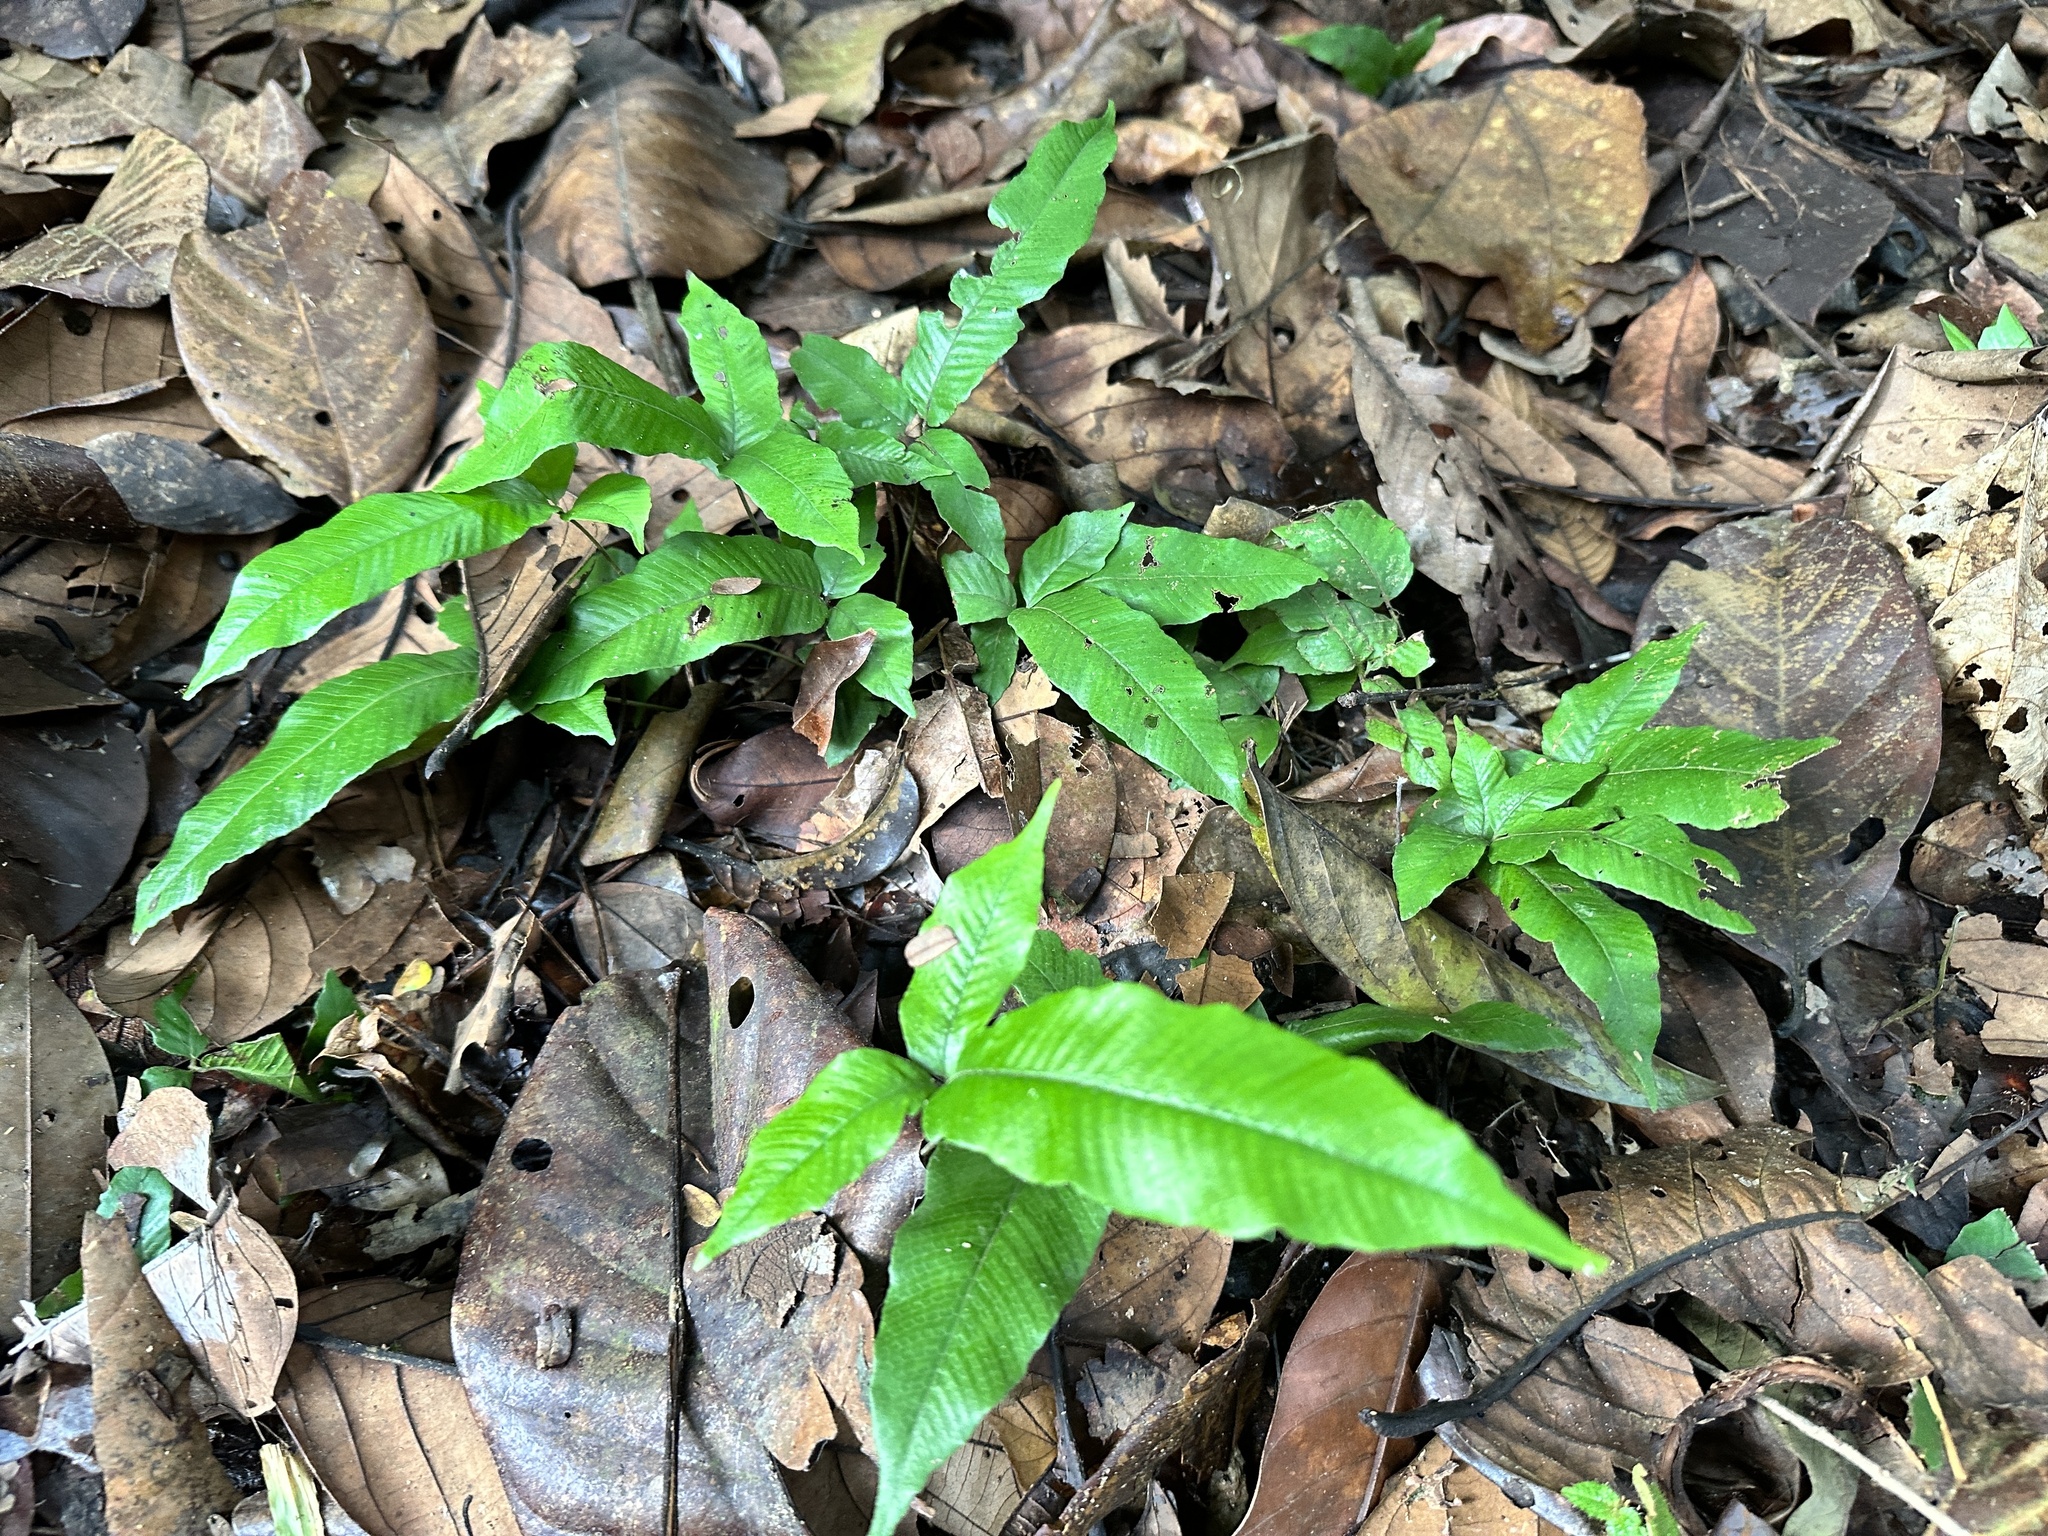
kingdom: Plantae
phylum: Tracheophyta
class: Polypodiopsida
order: Polypodiales
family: Thelypteridaceae
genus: Grypothrix
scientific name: Grypothrix triphylla
